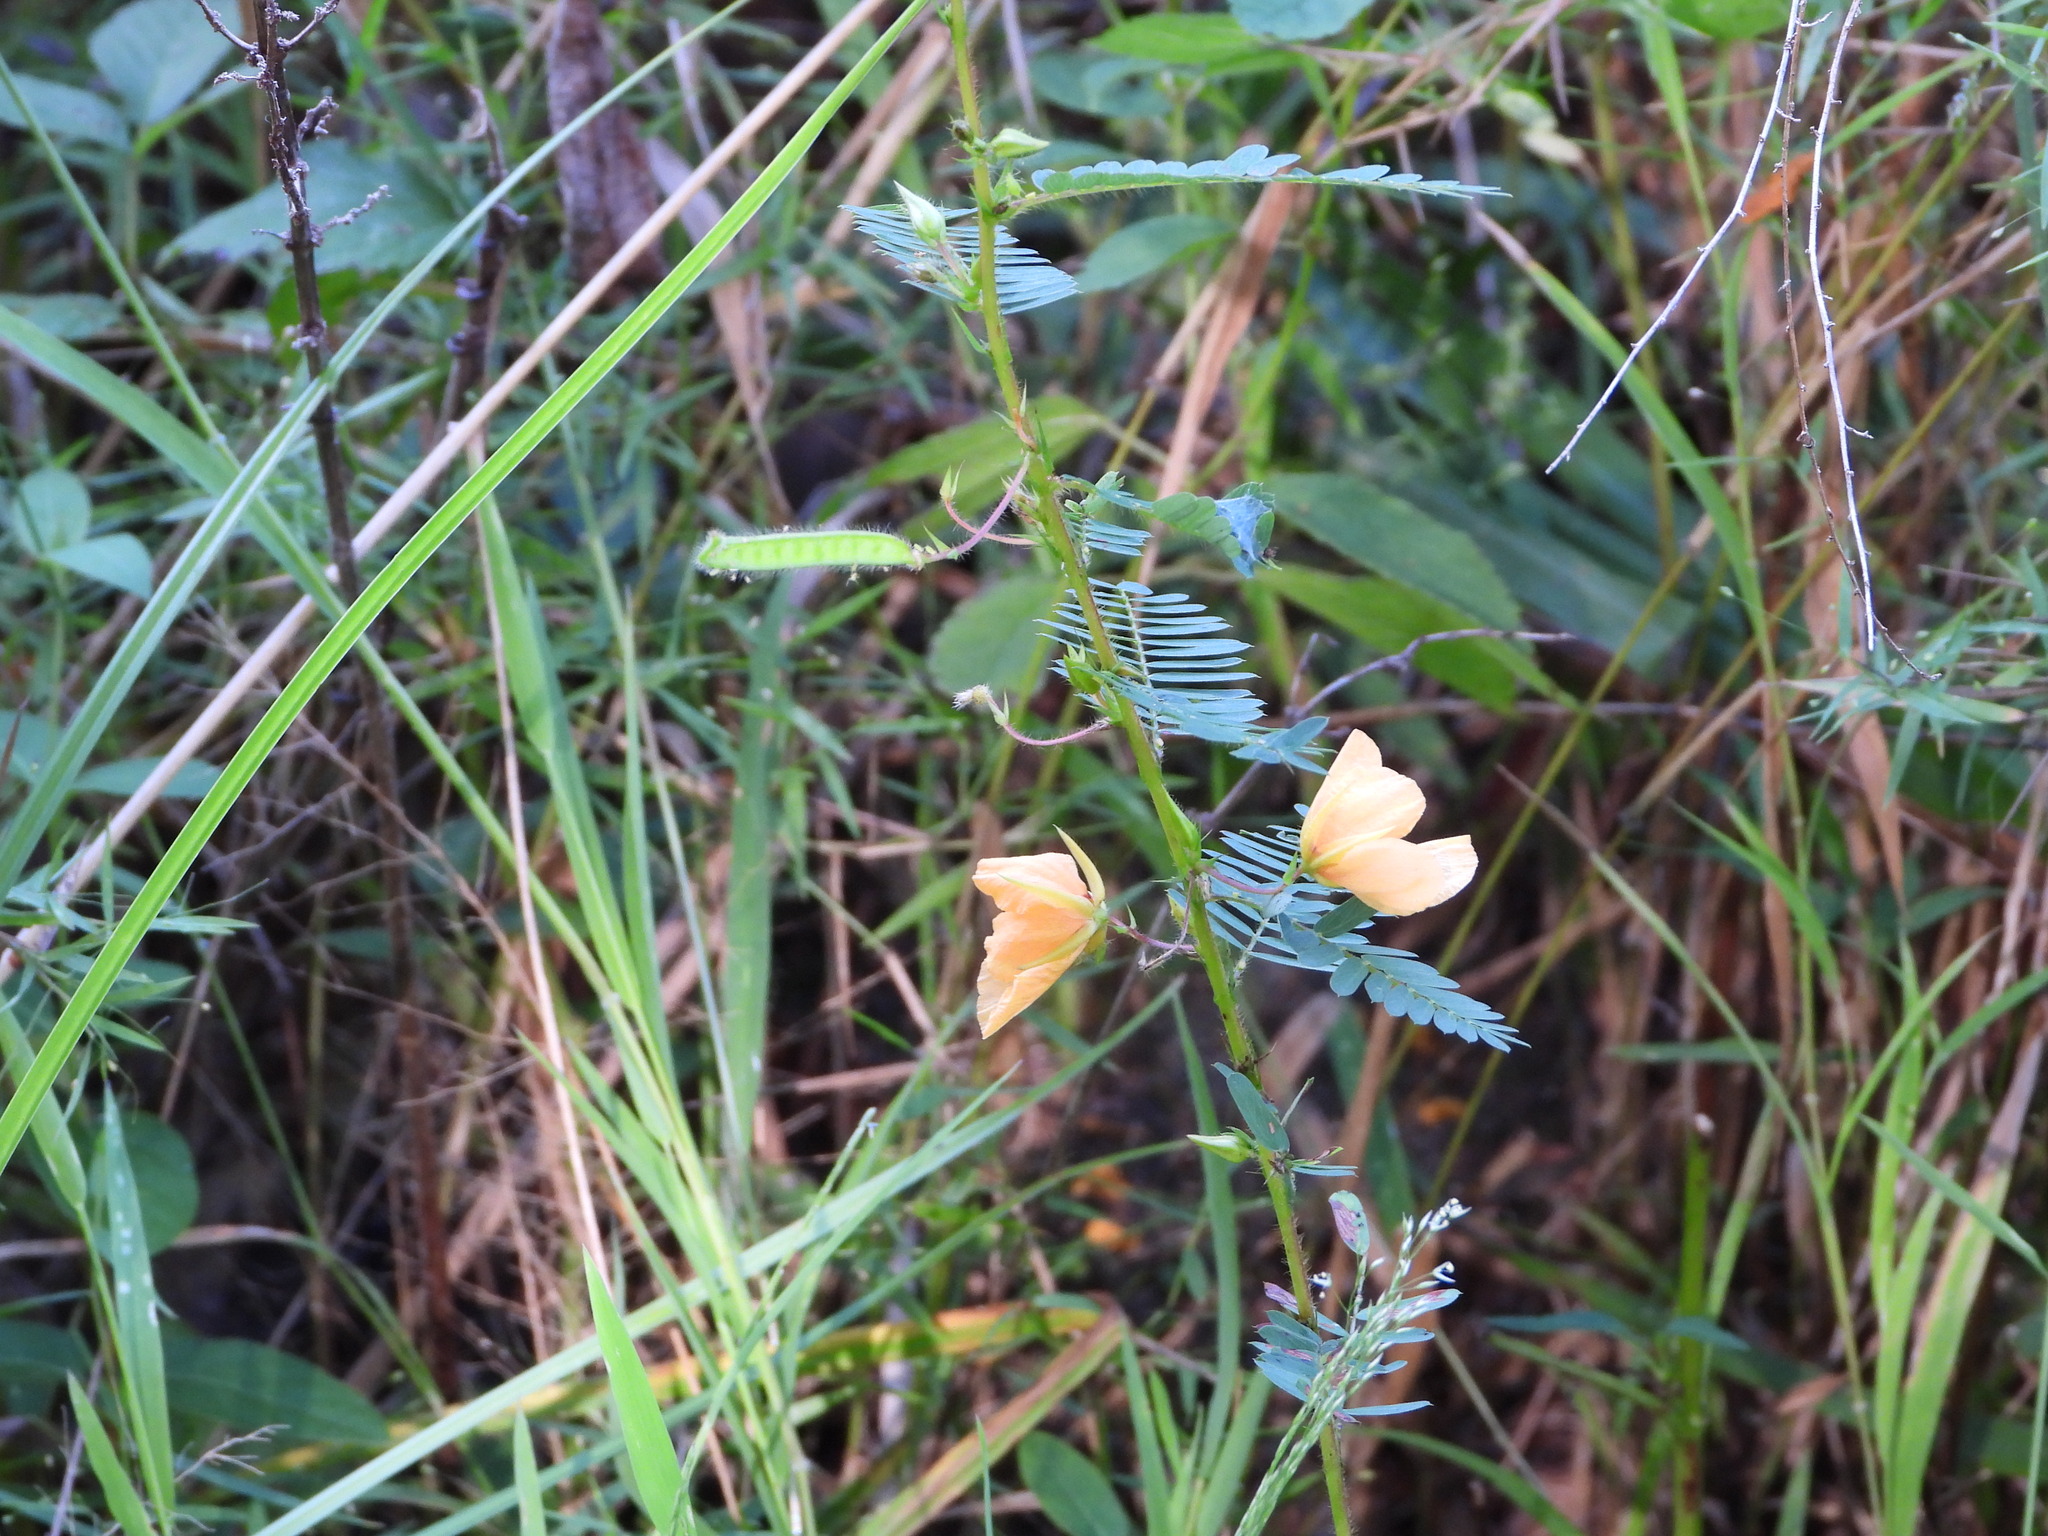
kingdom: Plantae
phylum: Tracheophyta
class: Magnoliopsida
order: Fabales
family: Fabaceae
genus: Chamaecrista
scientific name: Chamaecrista fasciculata
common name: Golden cassia
